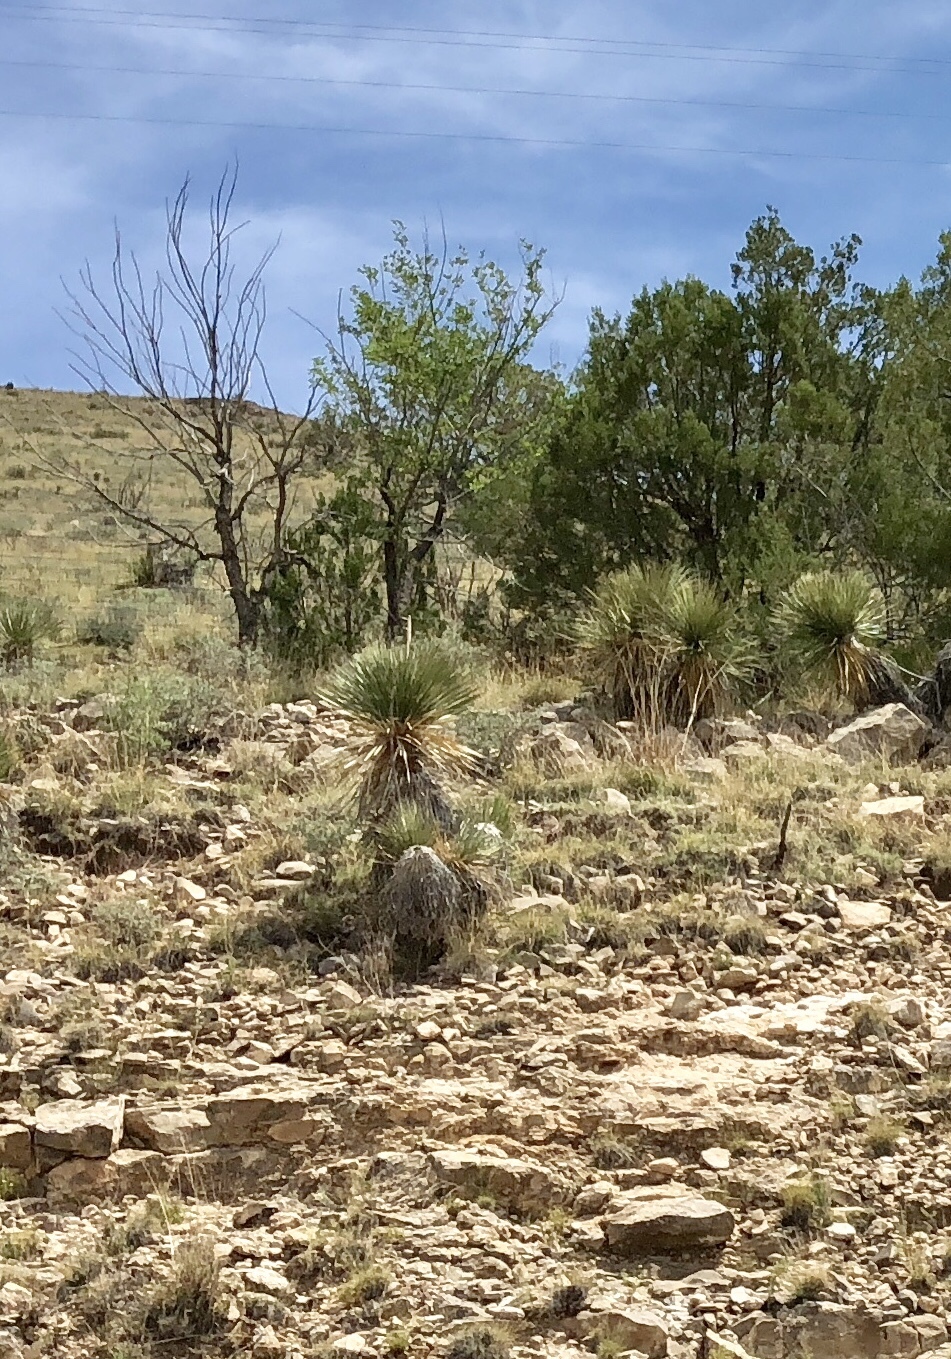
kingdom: Plantae
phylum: Tracheophyta
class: Liliopsida
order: Asparagales
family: Asparagaceae
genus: Yucca
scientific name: Yucca elata
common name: Palmella
